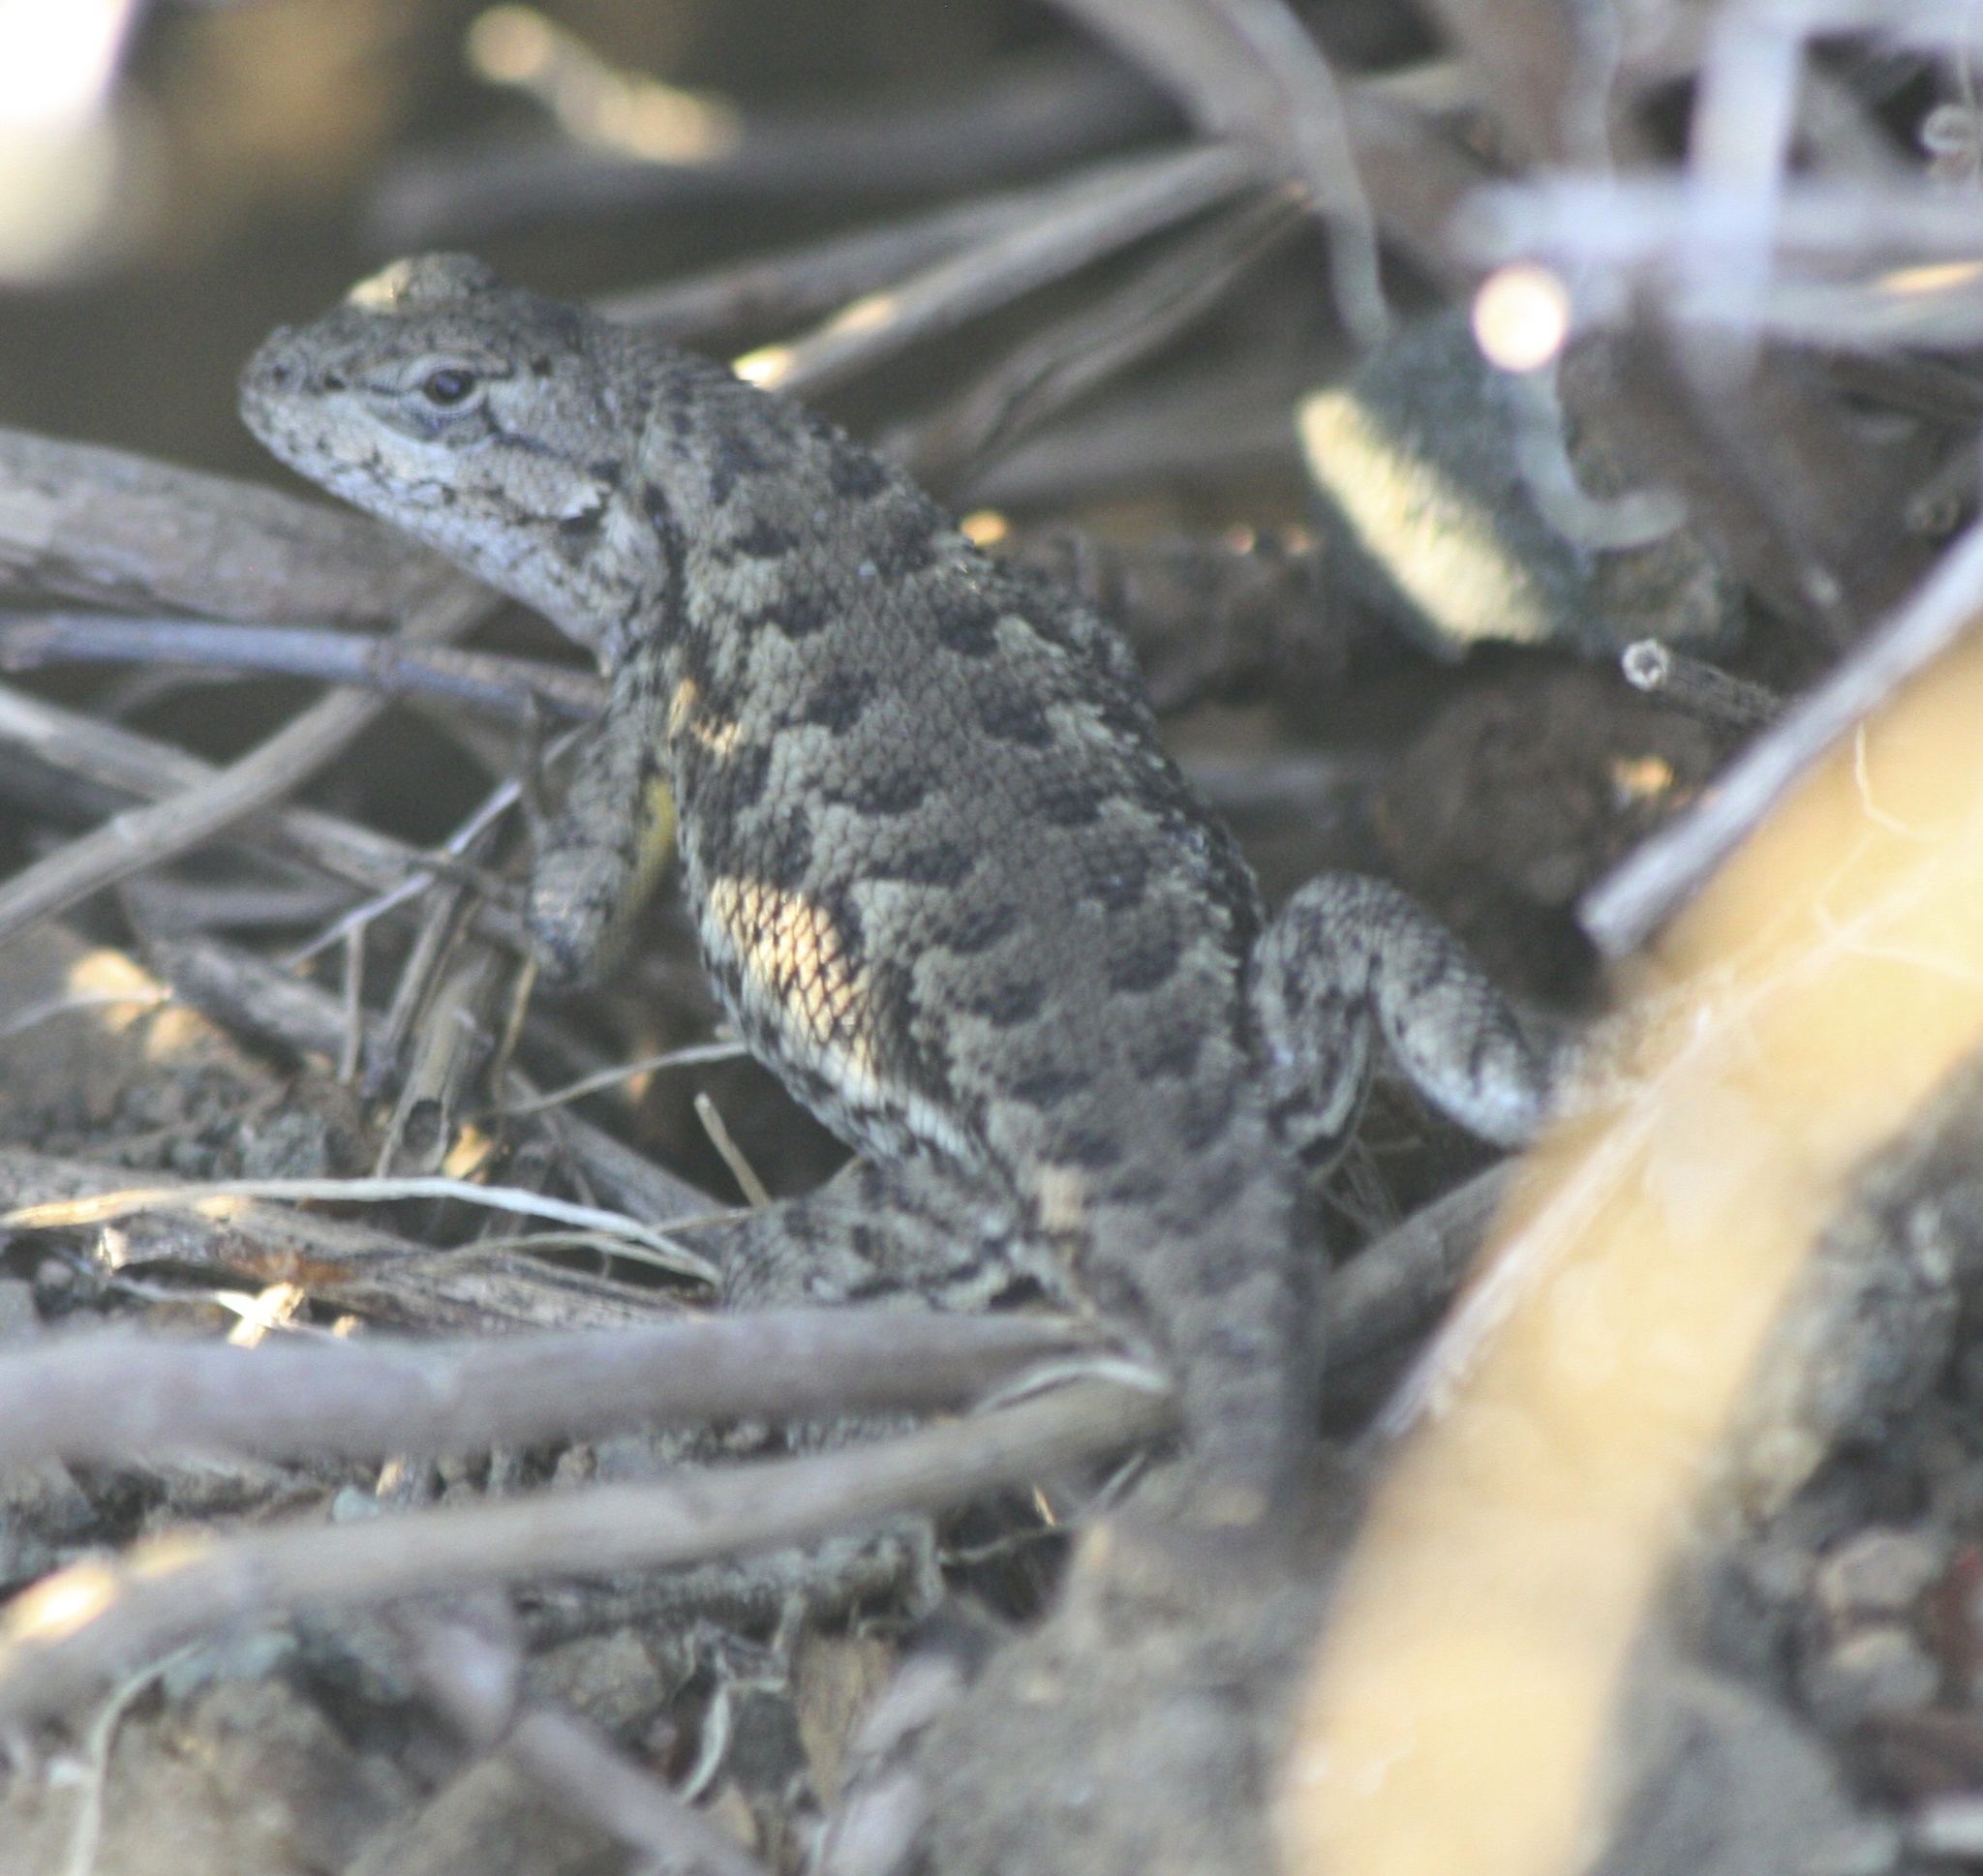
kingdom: Animalia
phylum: Chordata
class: Squamata
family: Phrynosomatidae
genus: Sceloporus
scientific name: Sceloporus occidentalis
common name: Western fence lizard
